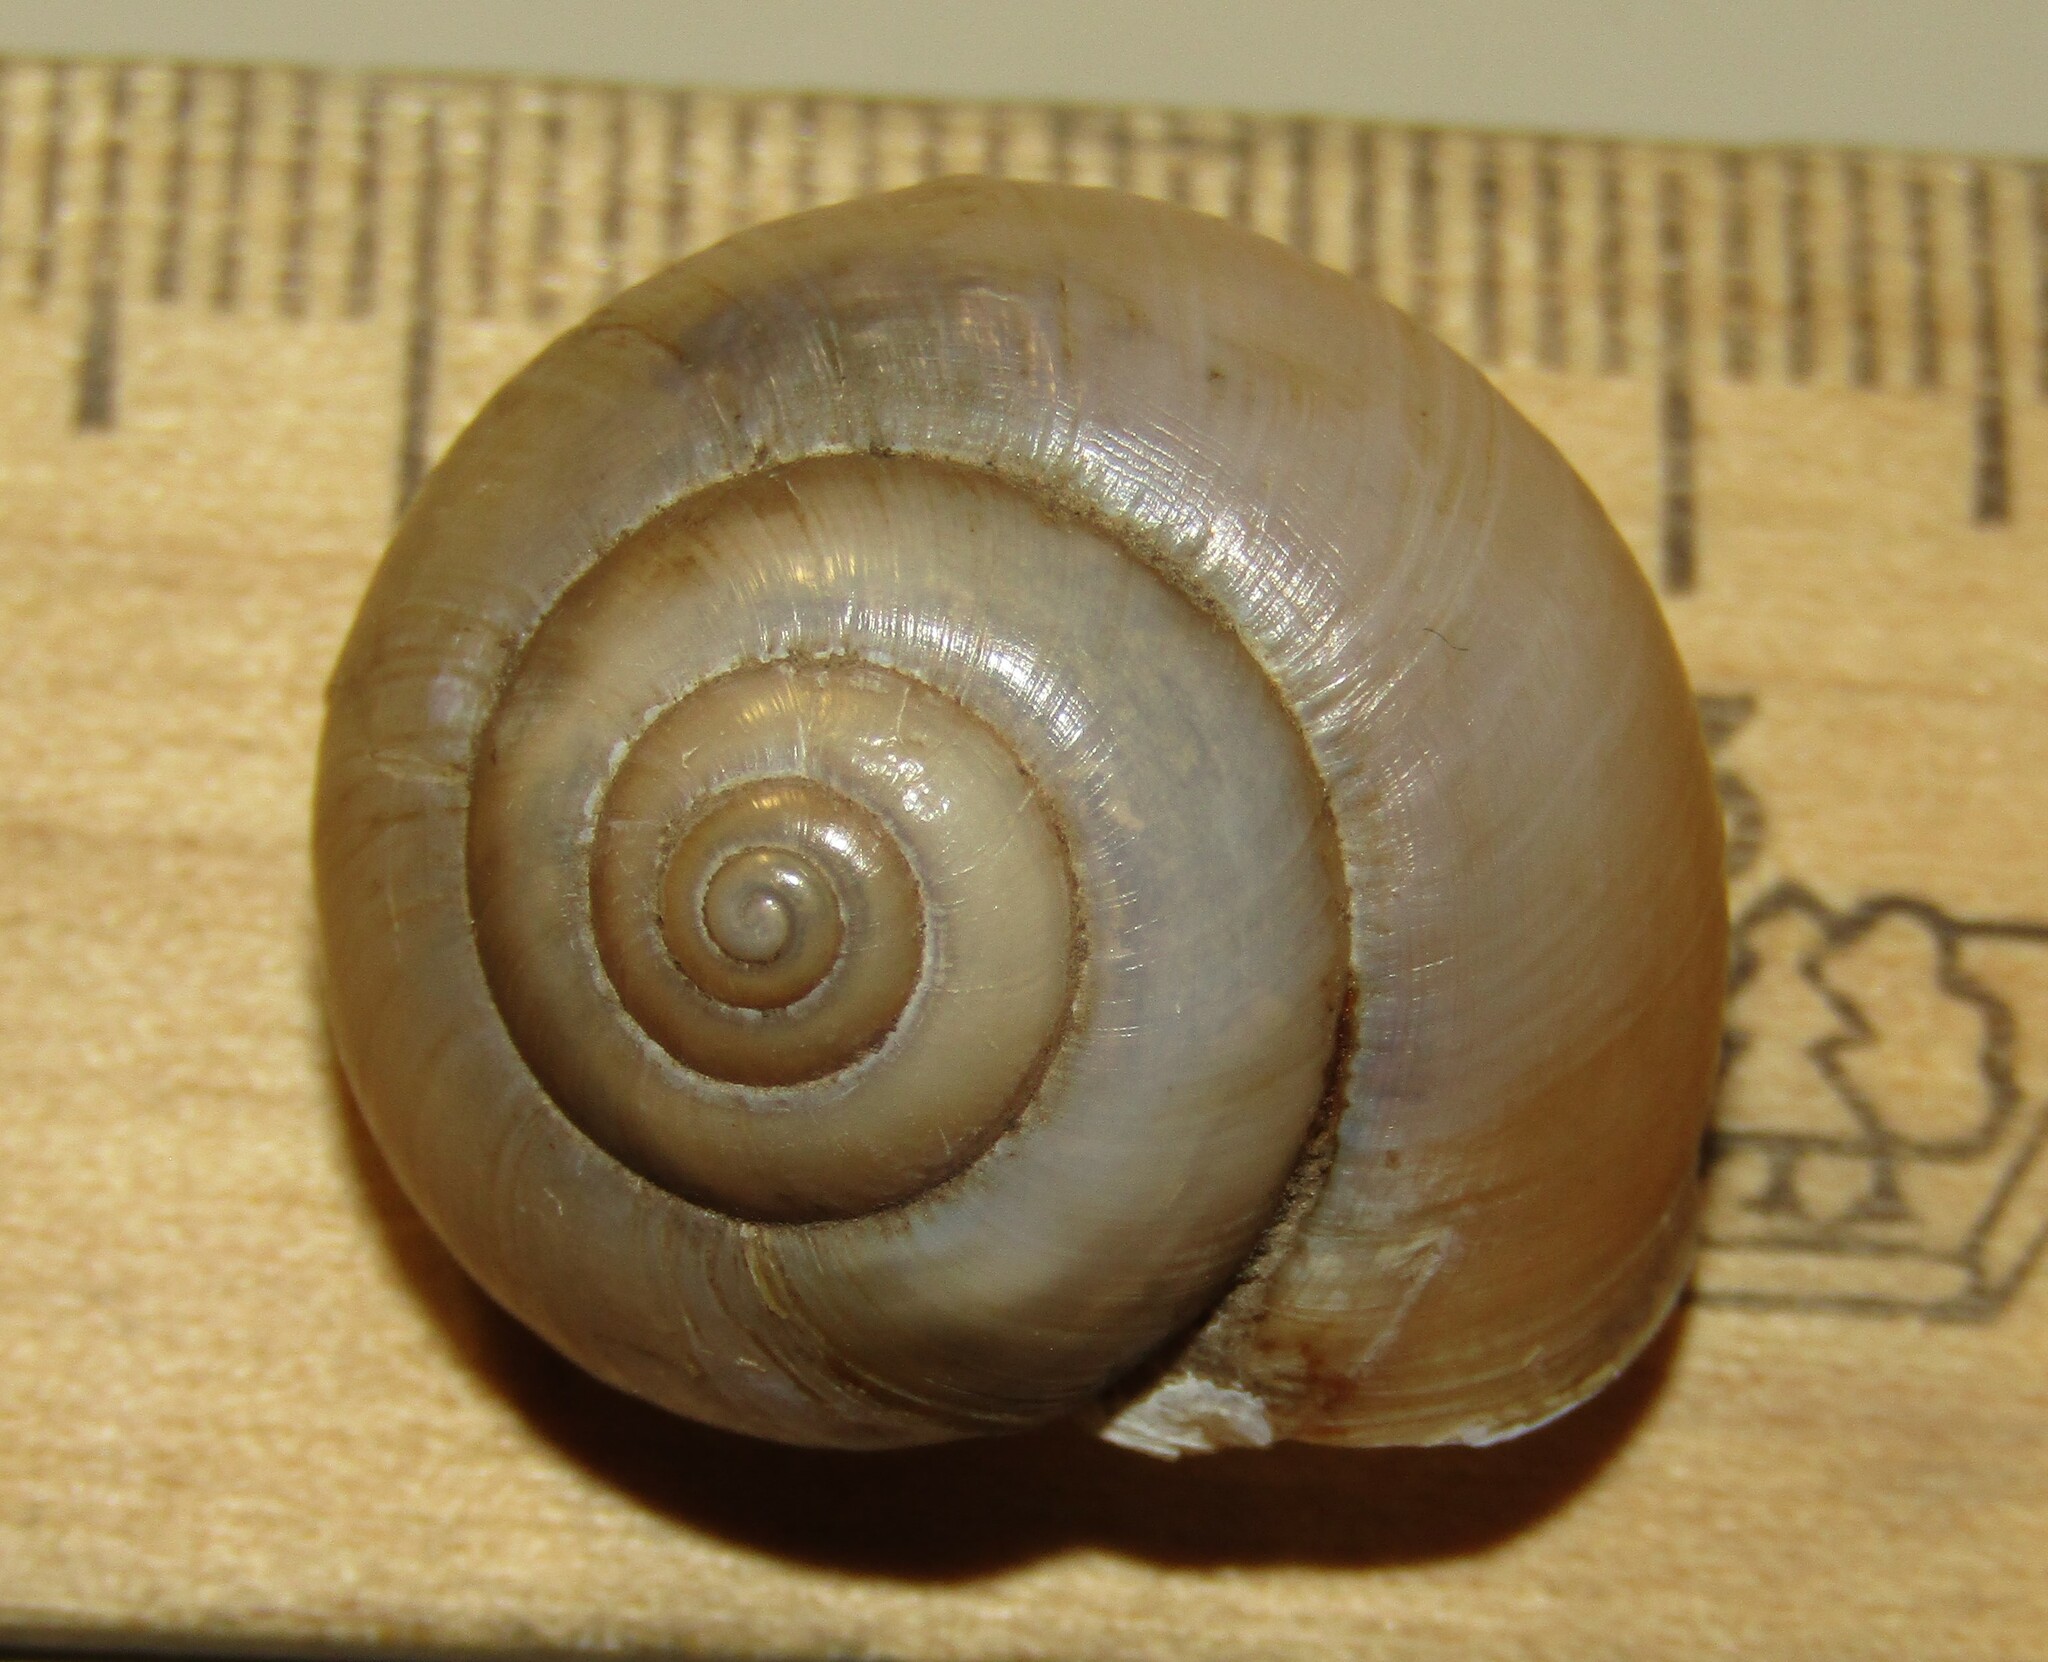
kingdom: Animalia
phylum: Mollusca
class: Gastropoda
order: Stylommatophora
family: Camaenidae
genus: Fruticicola
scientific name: Fruticicola fruticum
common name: Bush snail
